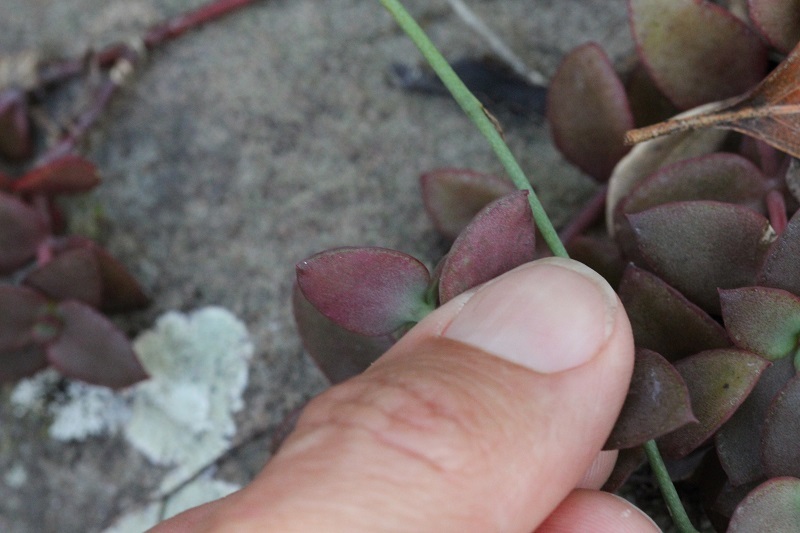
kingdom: Plantae
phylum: Tracheophyta
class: Magnoliopsida
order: Saxifragales
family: Crassulaceae
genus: Crassula
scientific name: Crassula pellucida
